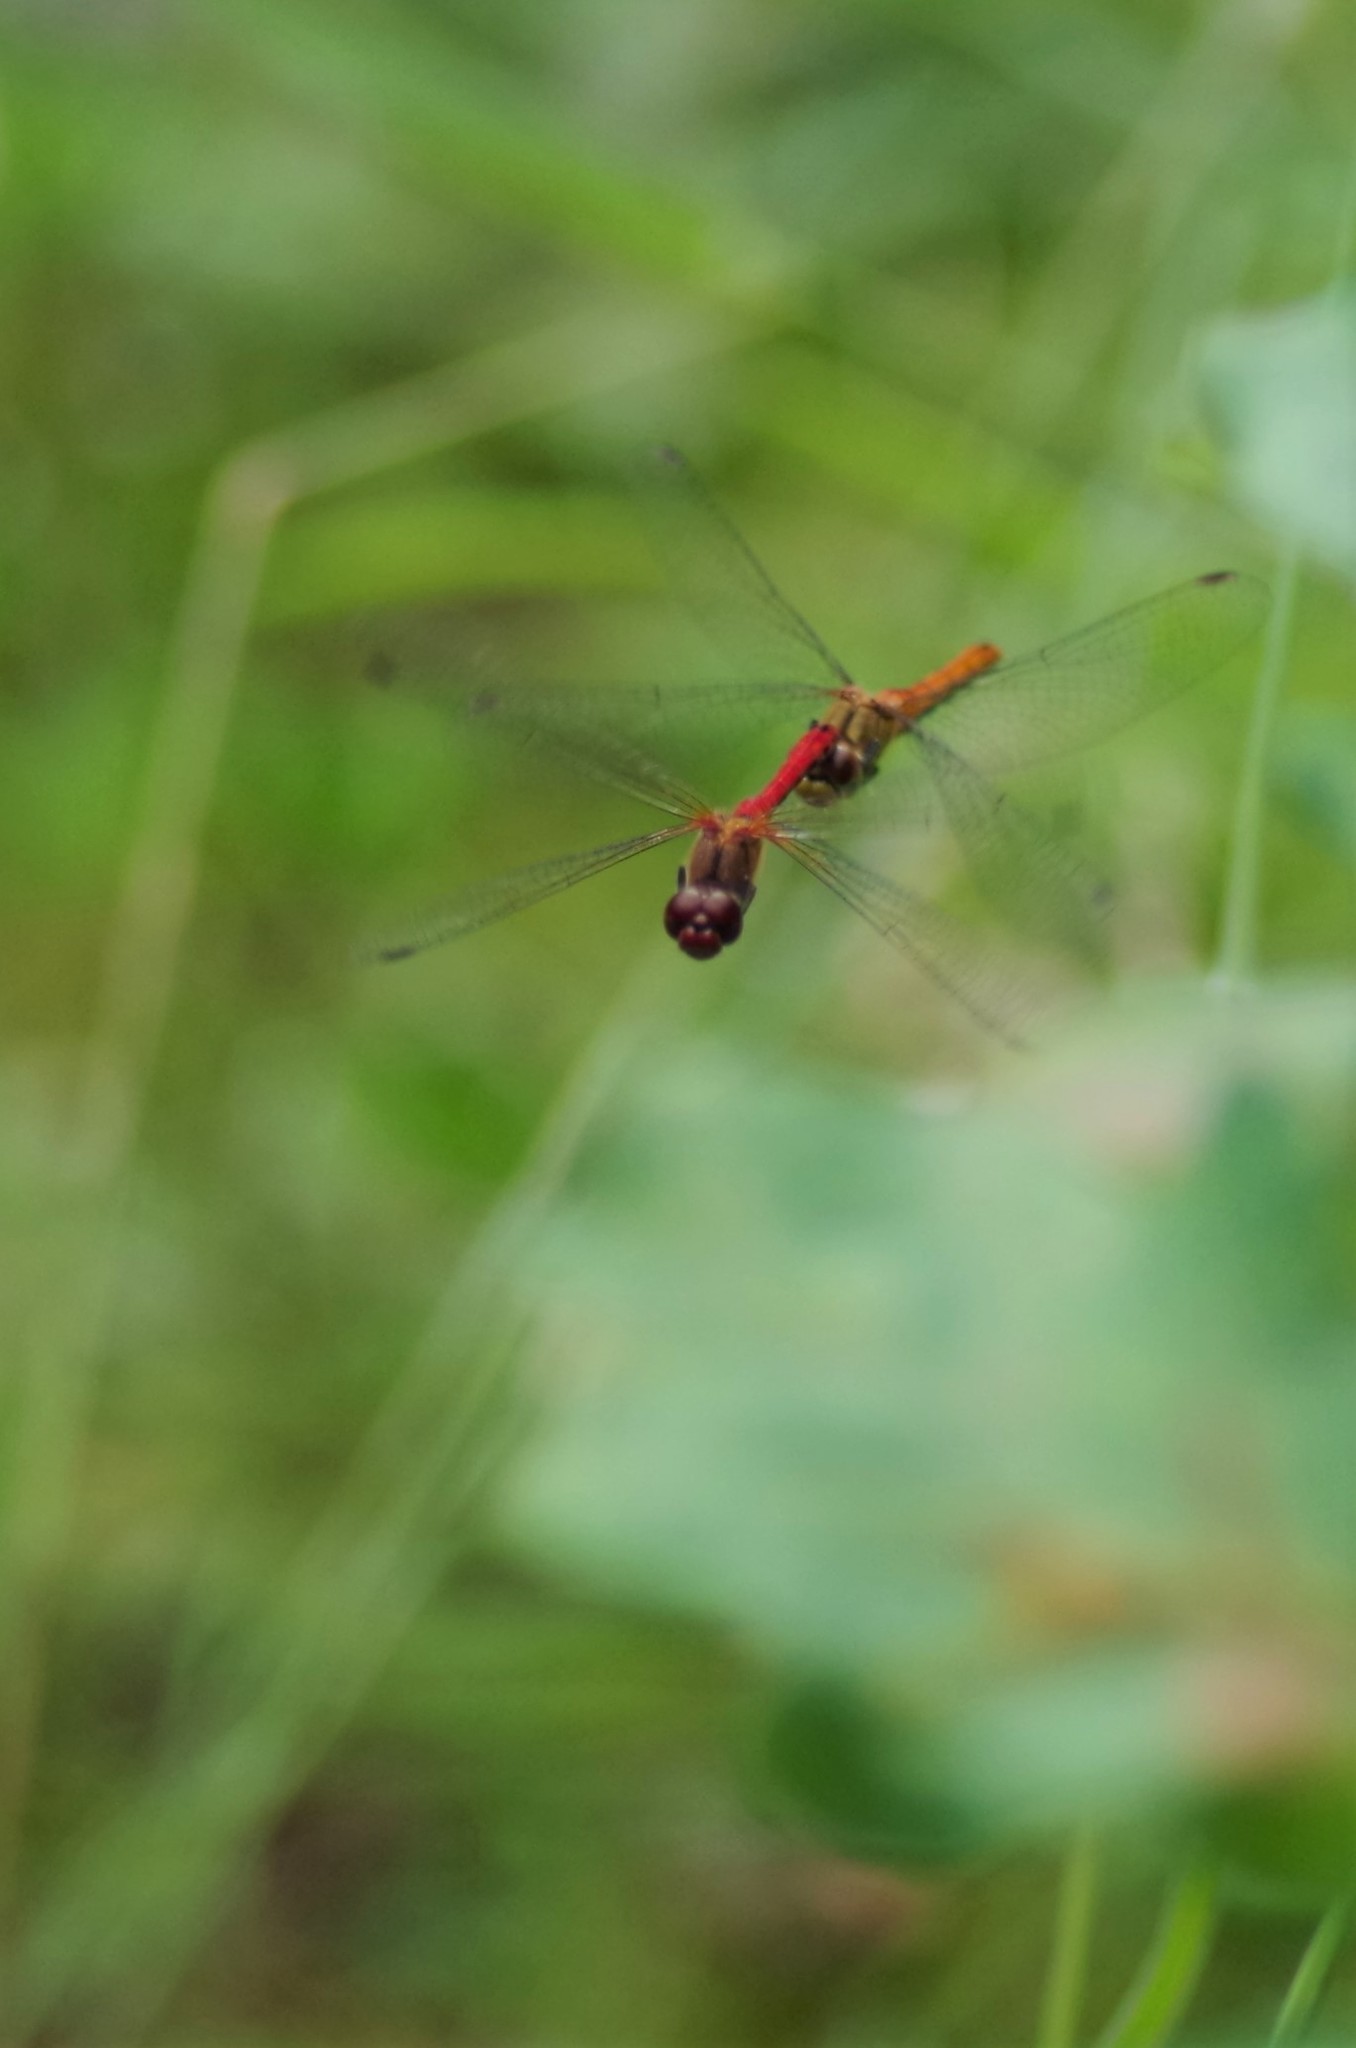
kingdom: Animalia
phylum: Arthropoda
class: Insecta
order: Odonata
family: Libellulidae
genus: Sympetrum
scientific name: Sympetrum sanguineum
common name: Ruddy darter
